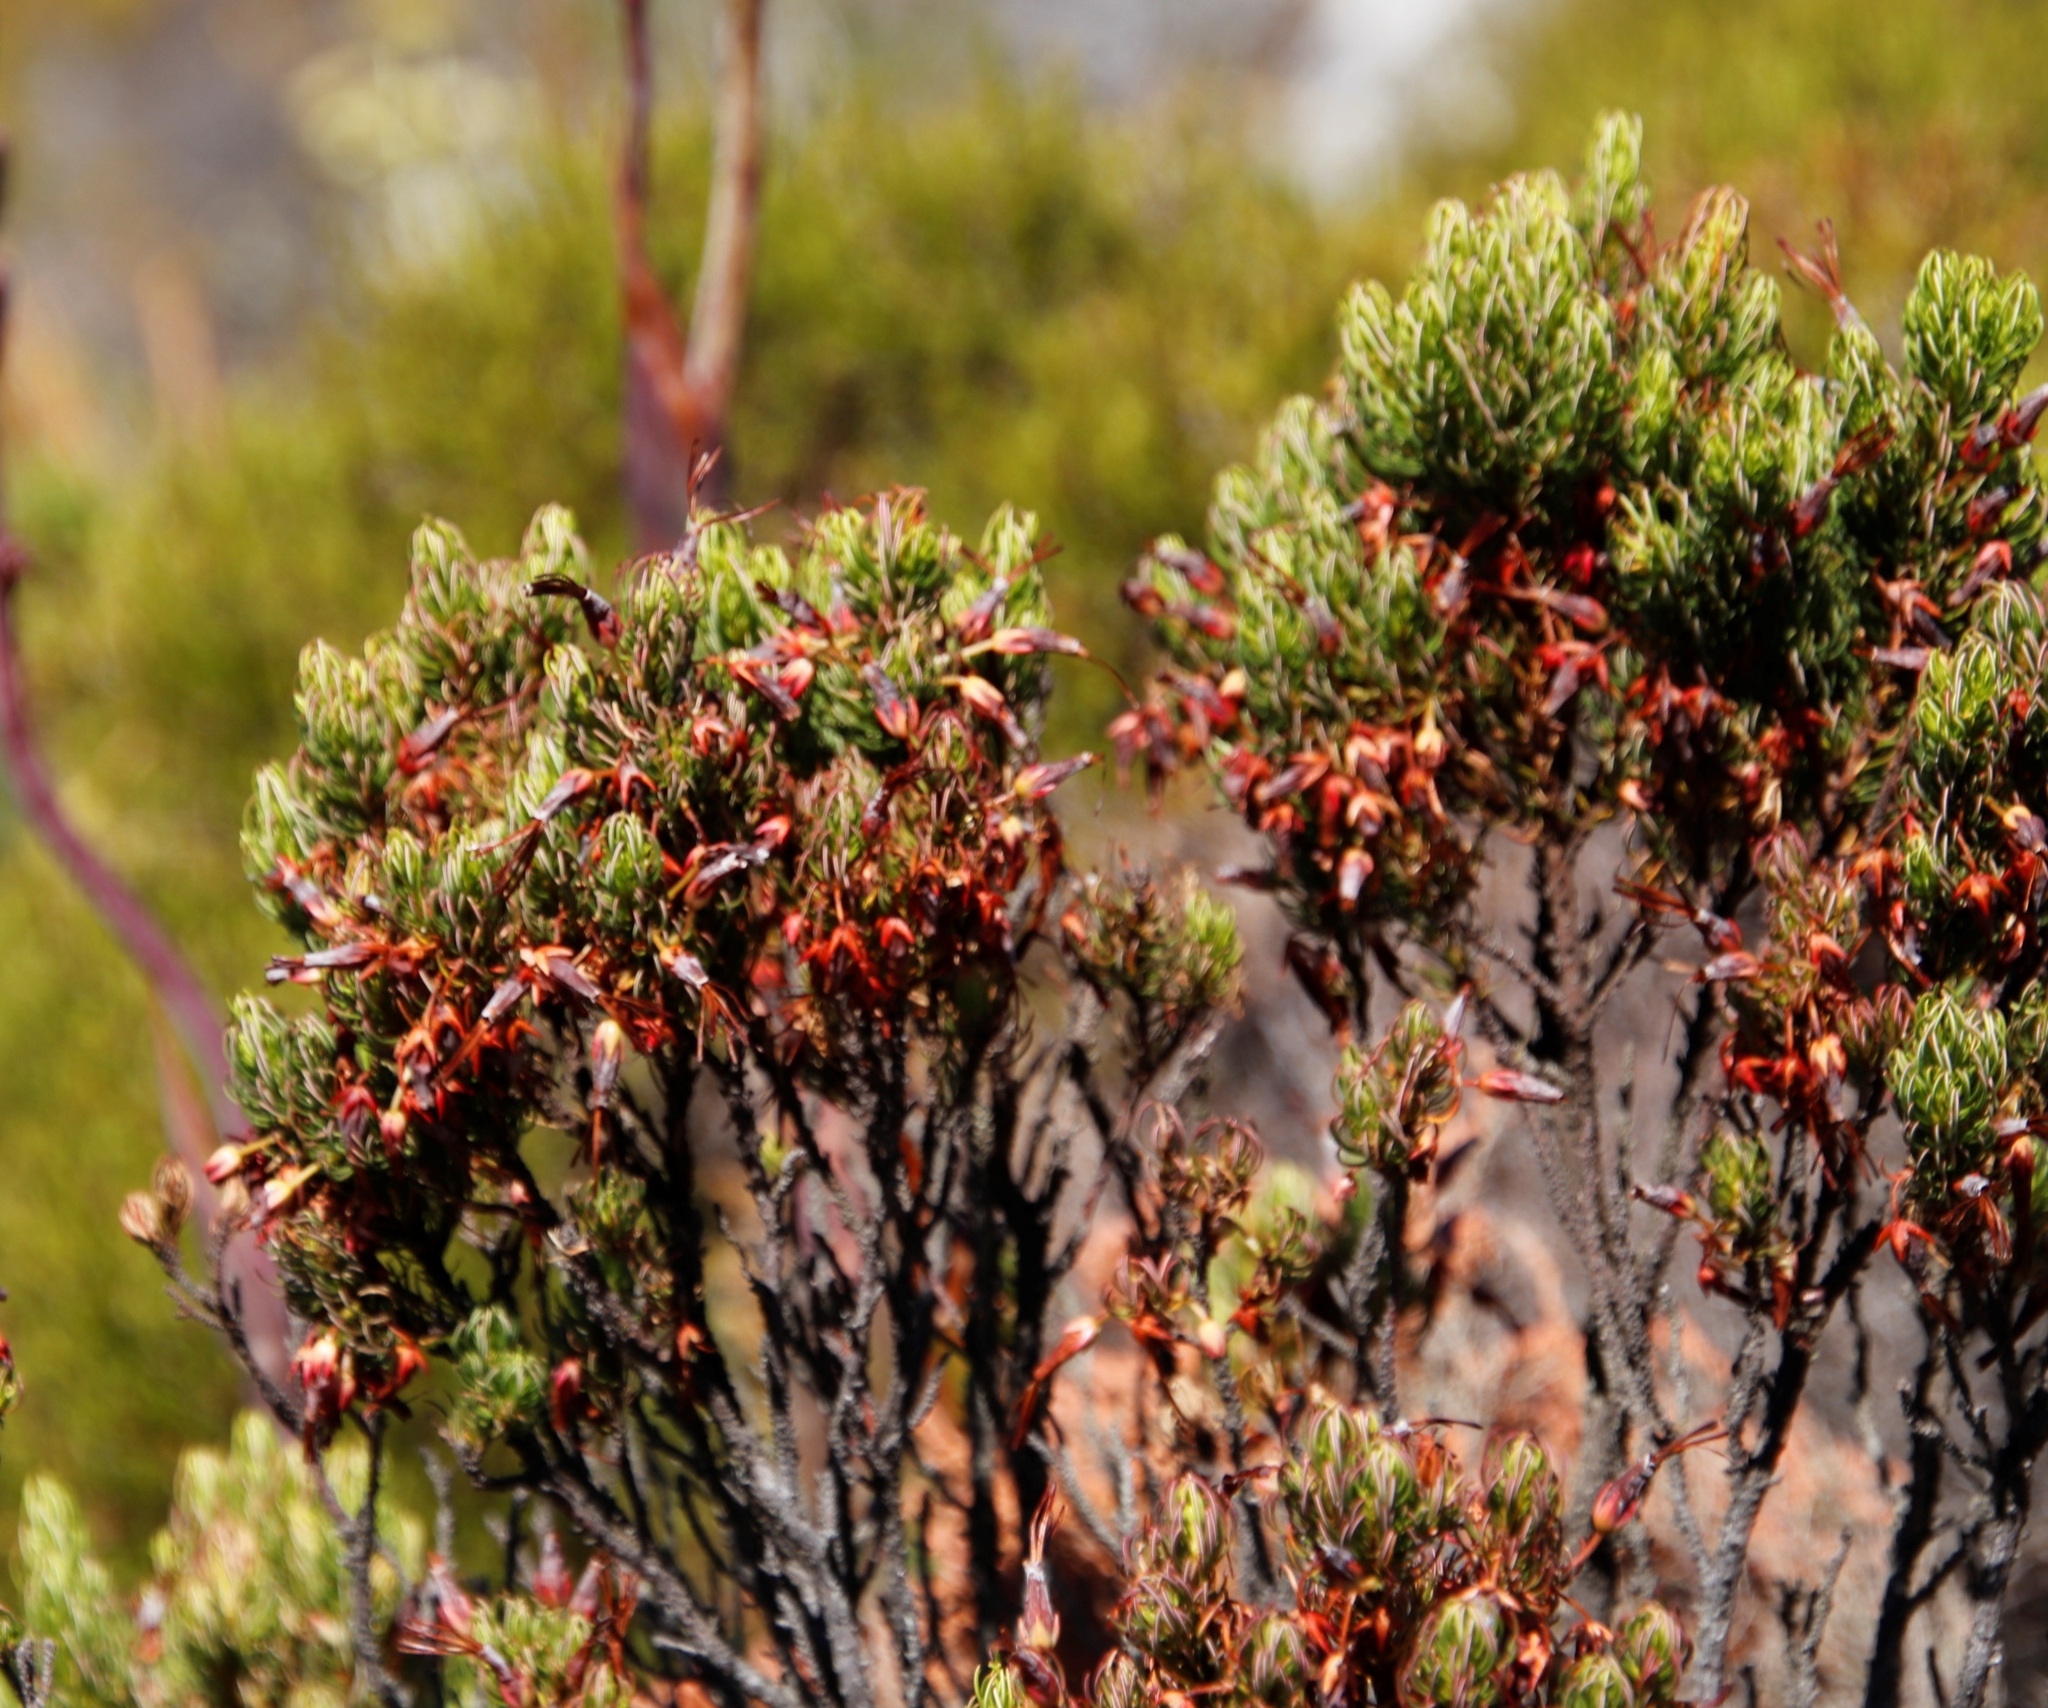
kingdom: Plantae
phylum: Tracheophyta
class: Magnoliopsida
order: Ericales
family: Ericaceae
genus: Erica
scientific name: Erica plukenetii
